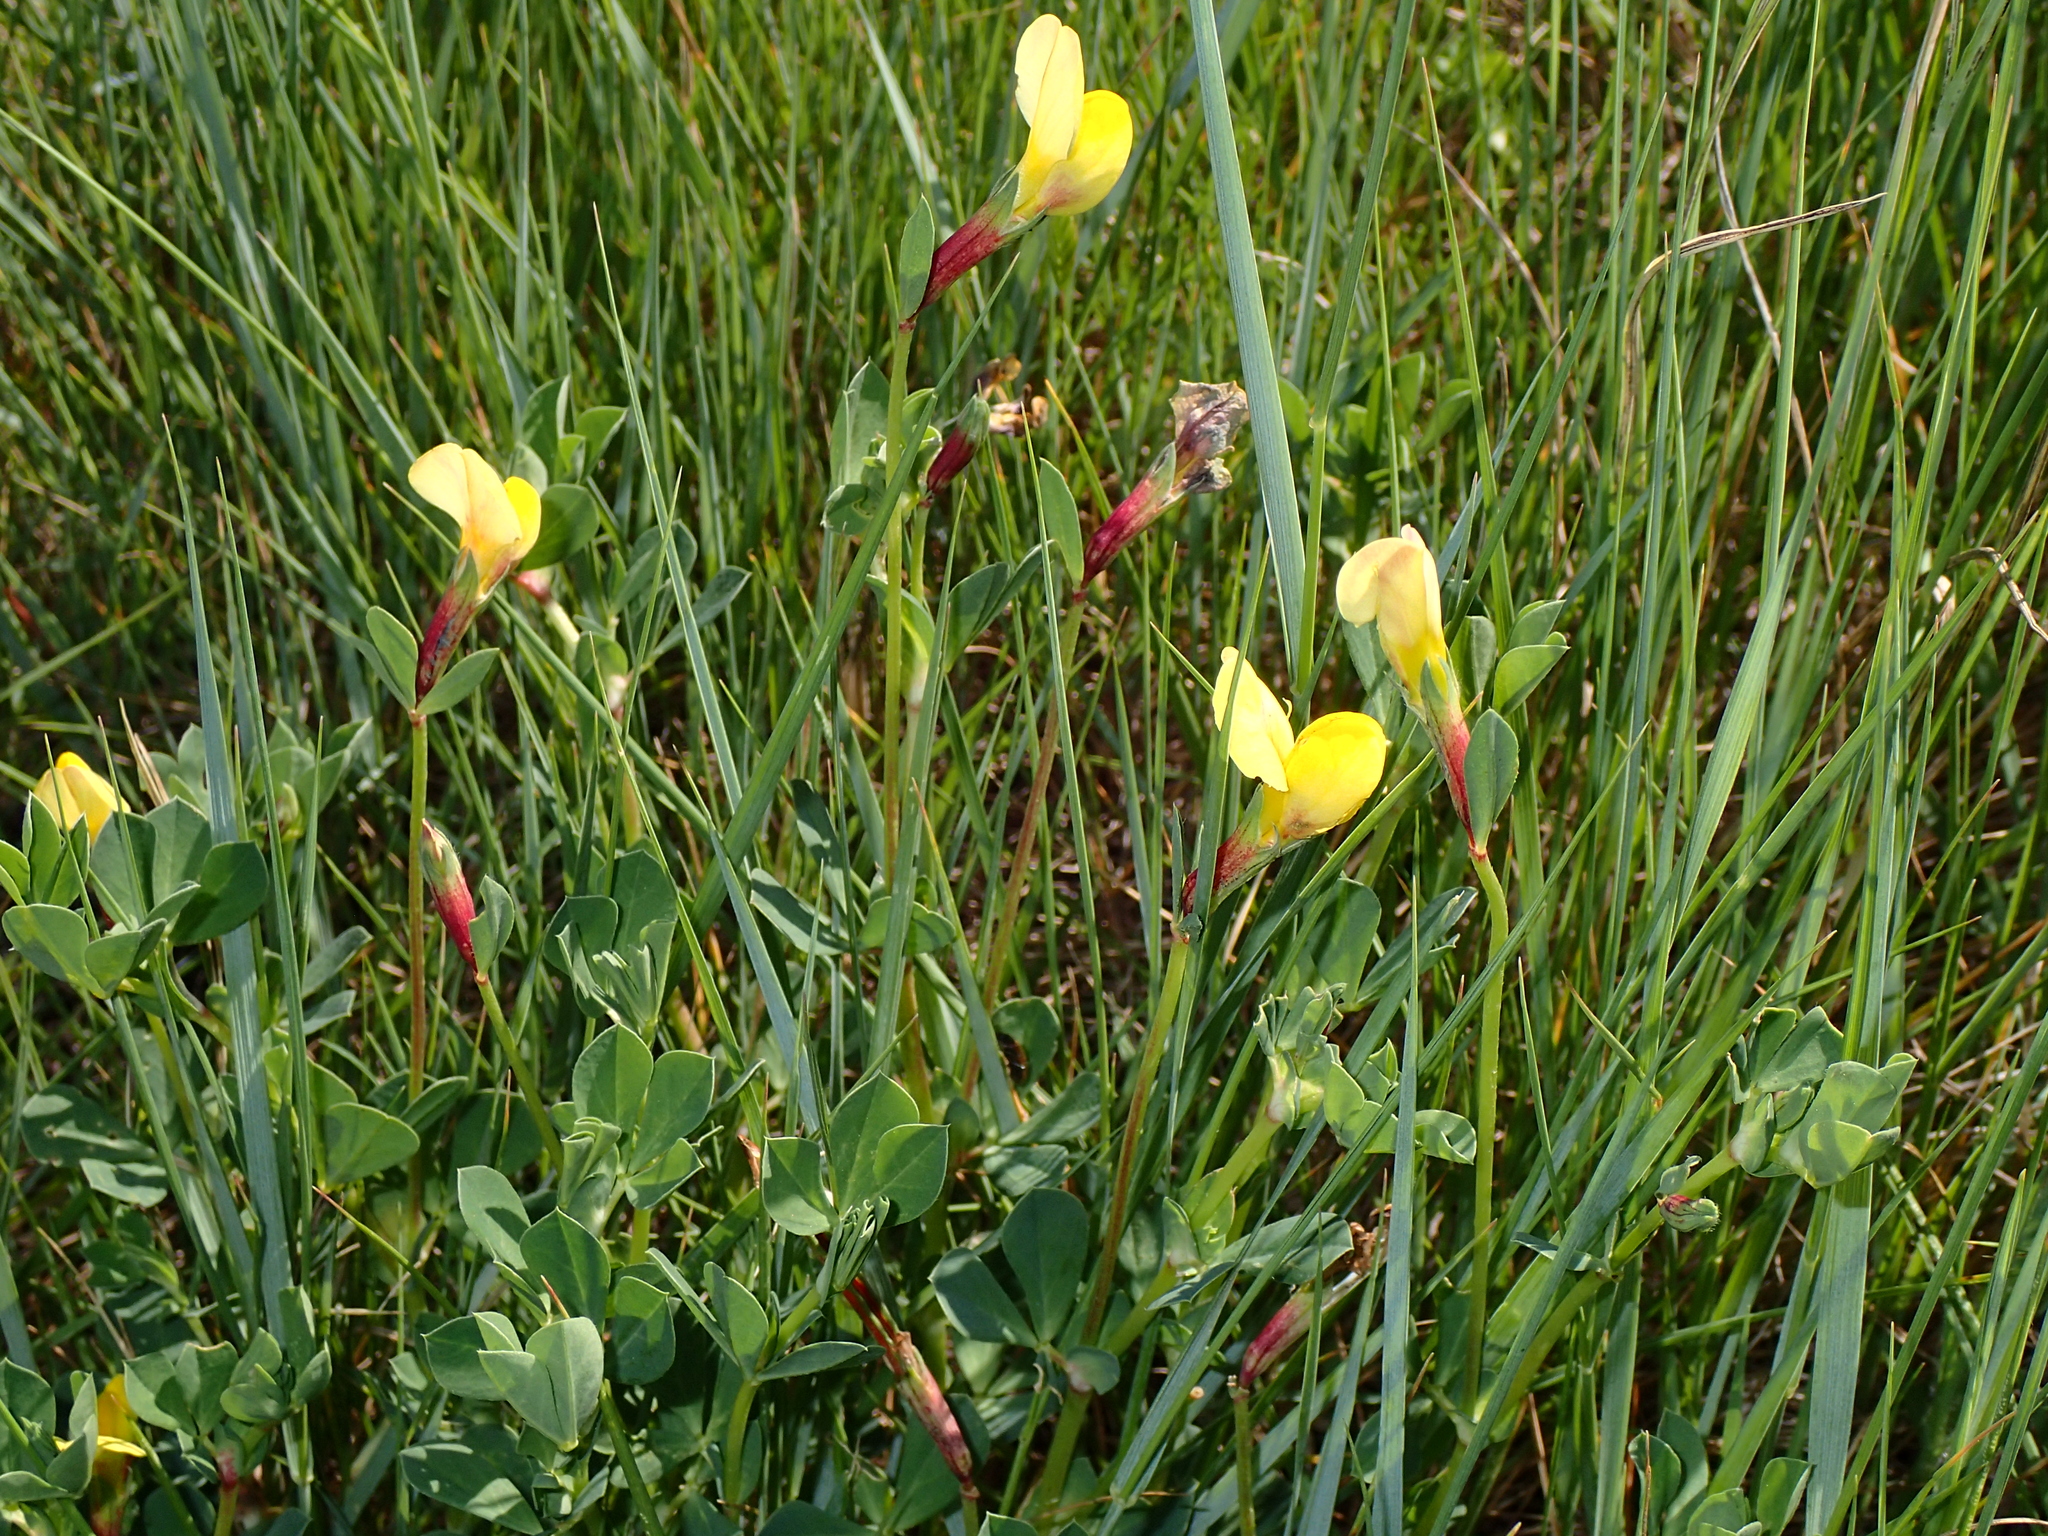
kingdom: Plantae
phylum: Tracheophyta
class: Magnoliopsida
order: Fabales
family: Fabaceae
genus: Lotus
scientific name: Lotus maritimus
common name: Dragon's-teeth
